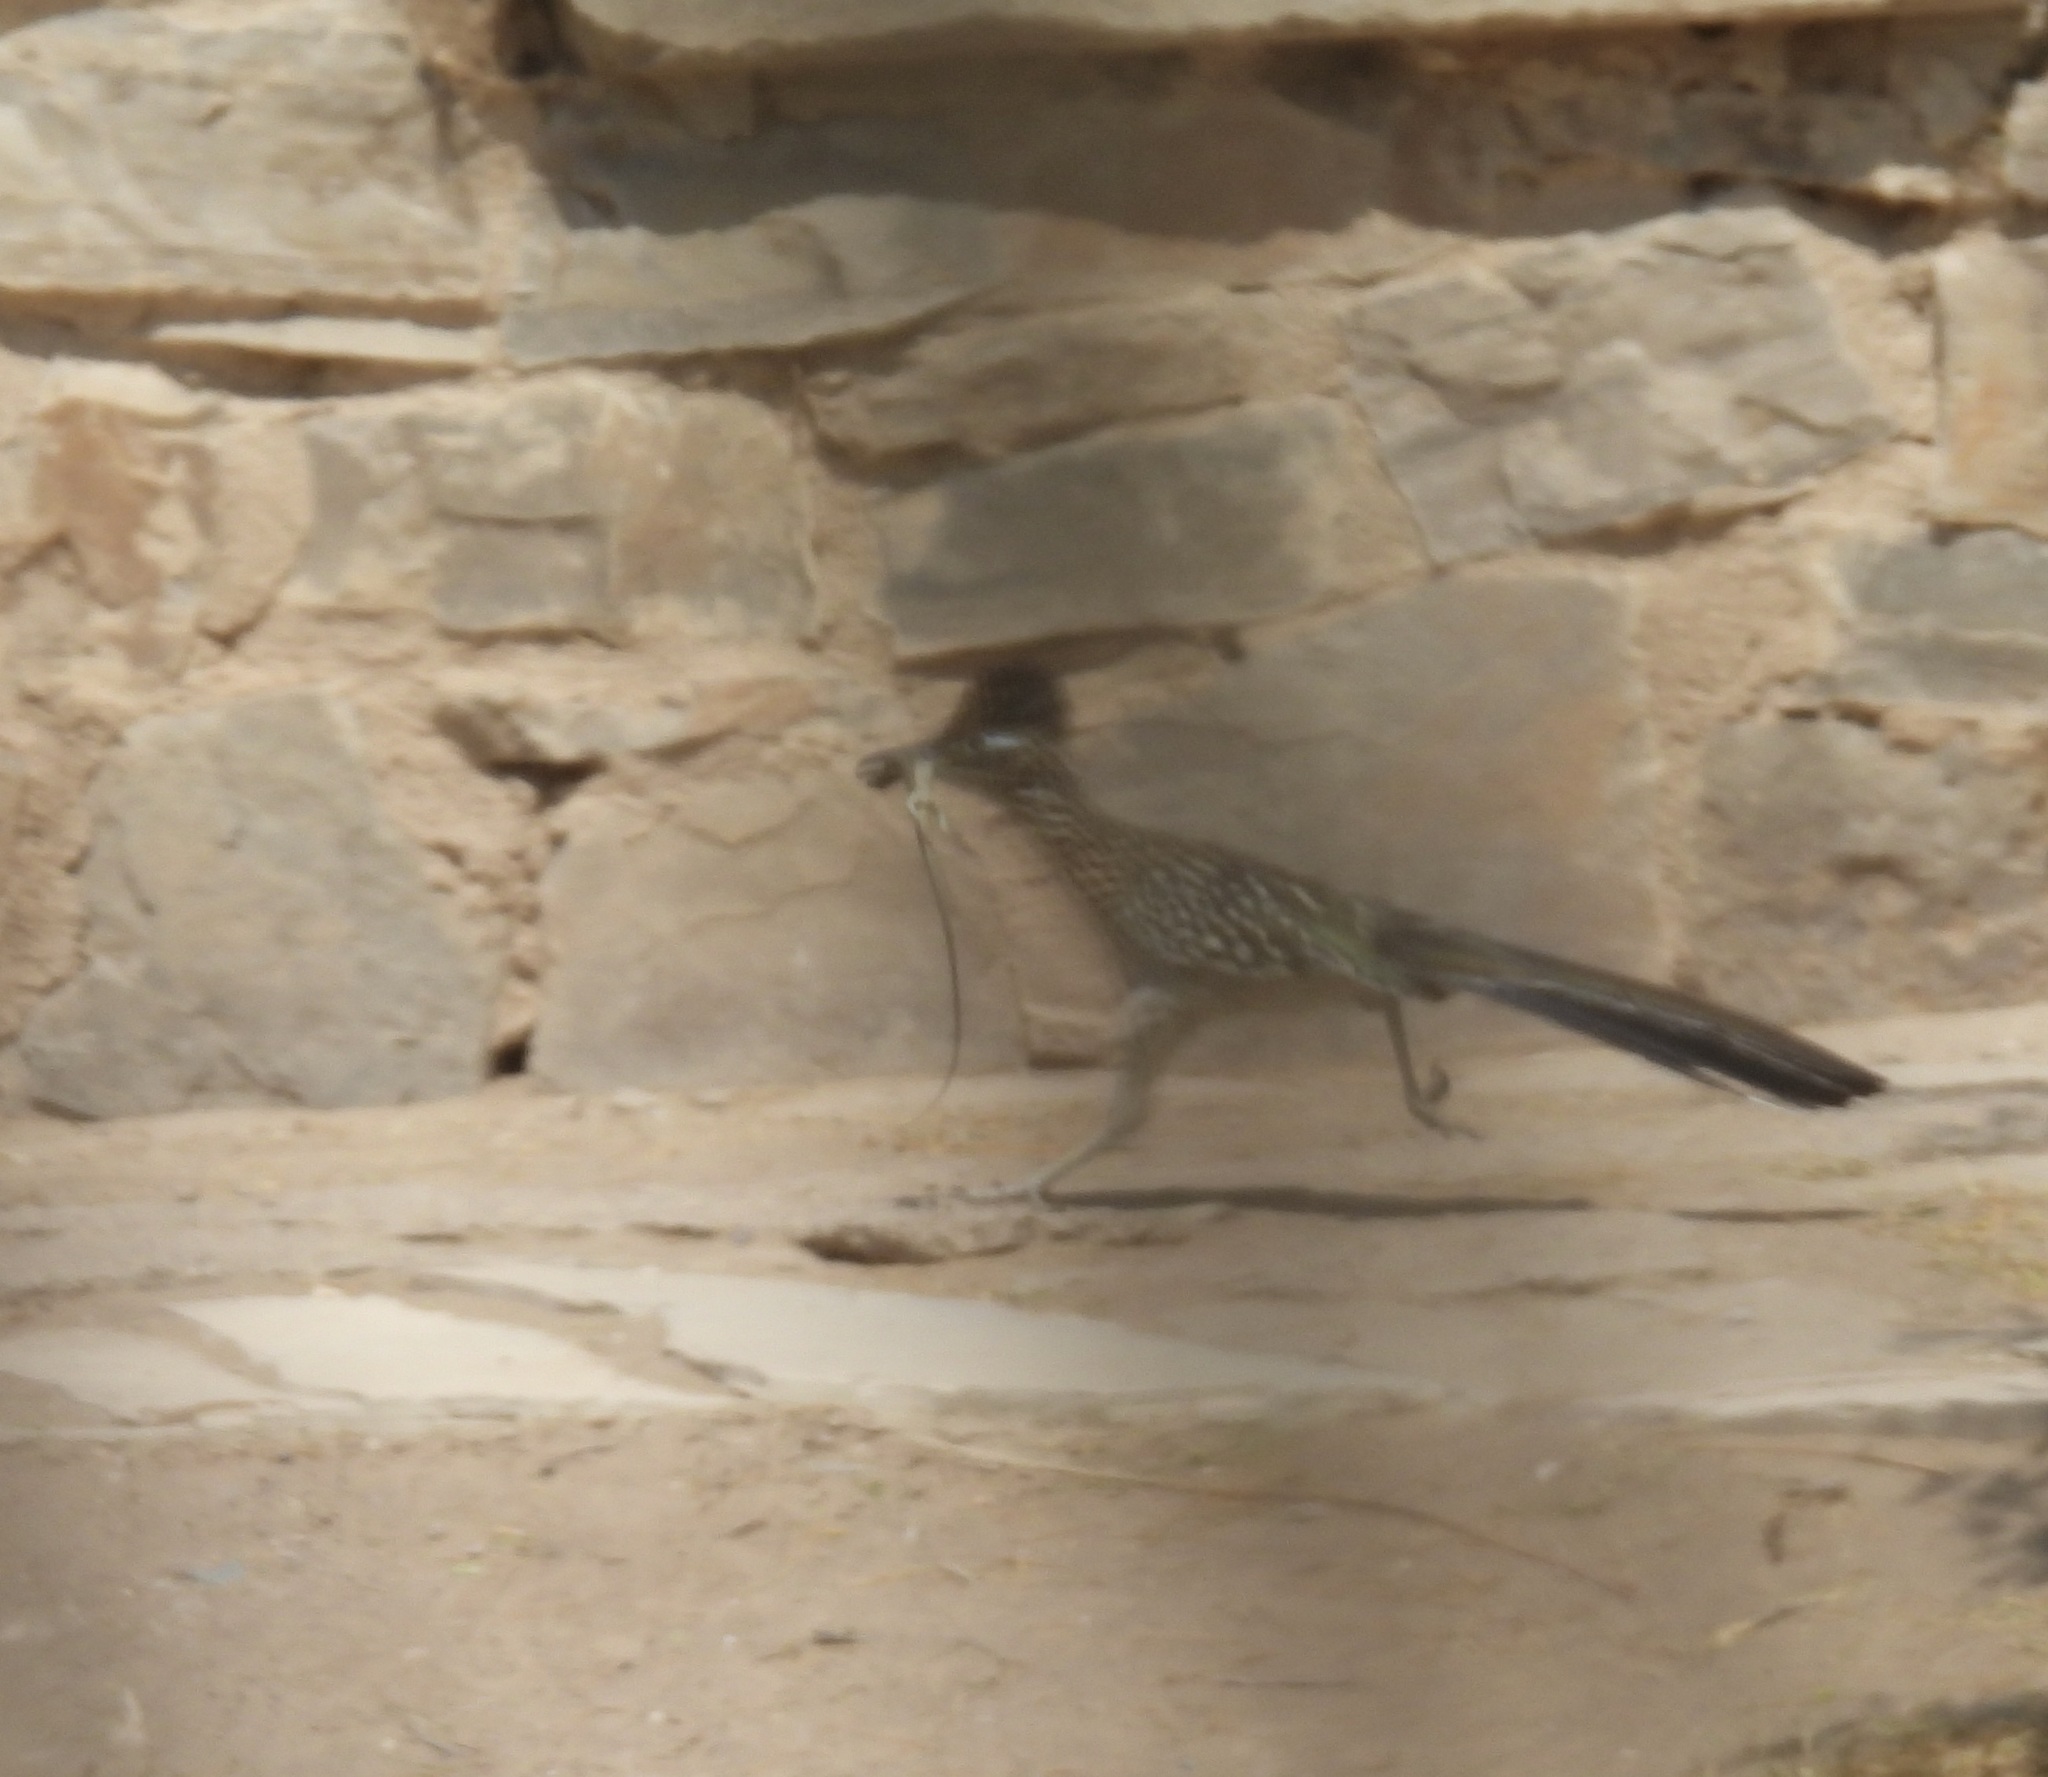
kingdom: Animalia
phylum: Chordata
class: Aves
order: Cuculiformes
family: Cuculidae
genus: Geococcyx
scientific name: Geococcyx californianus
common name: Greater roadrunner
